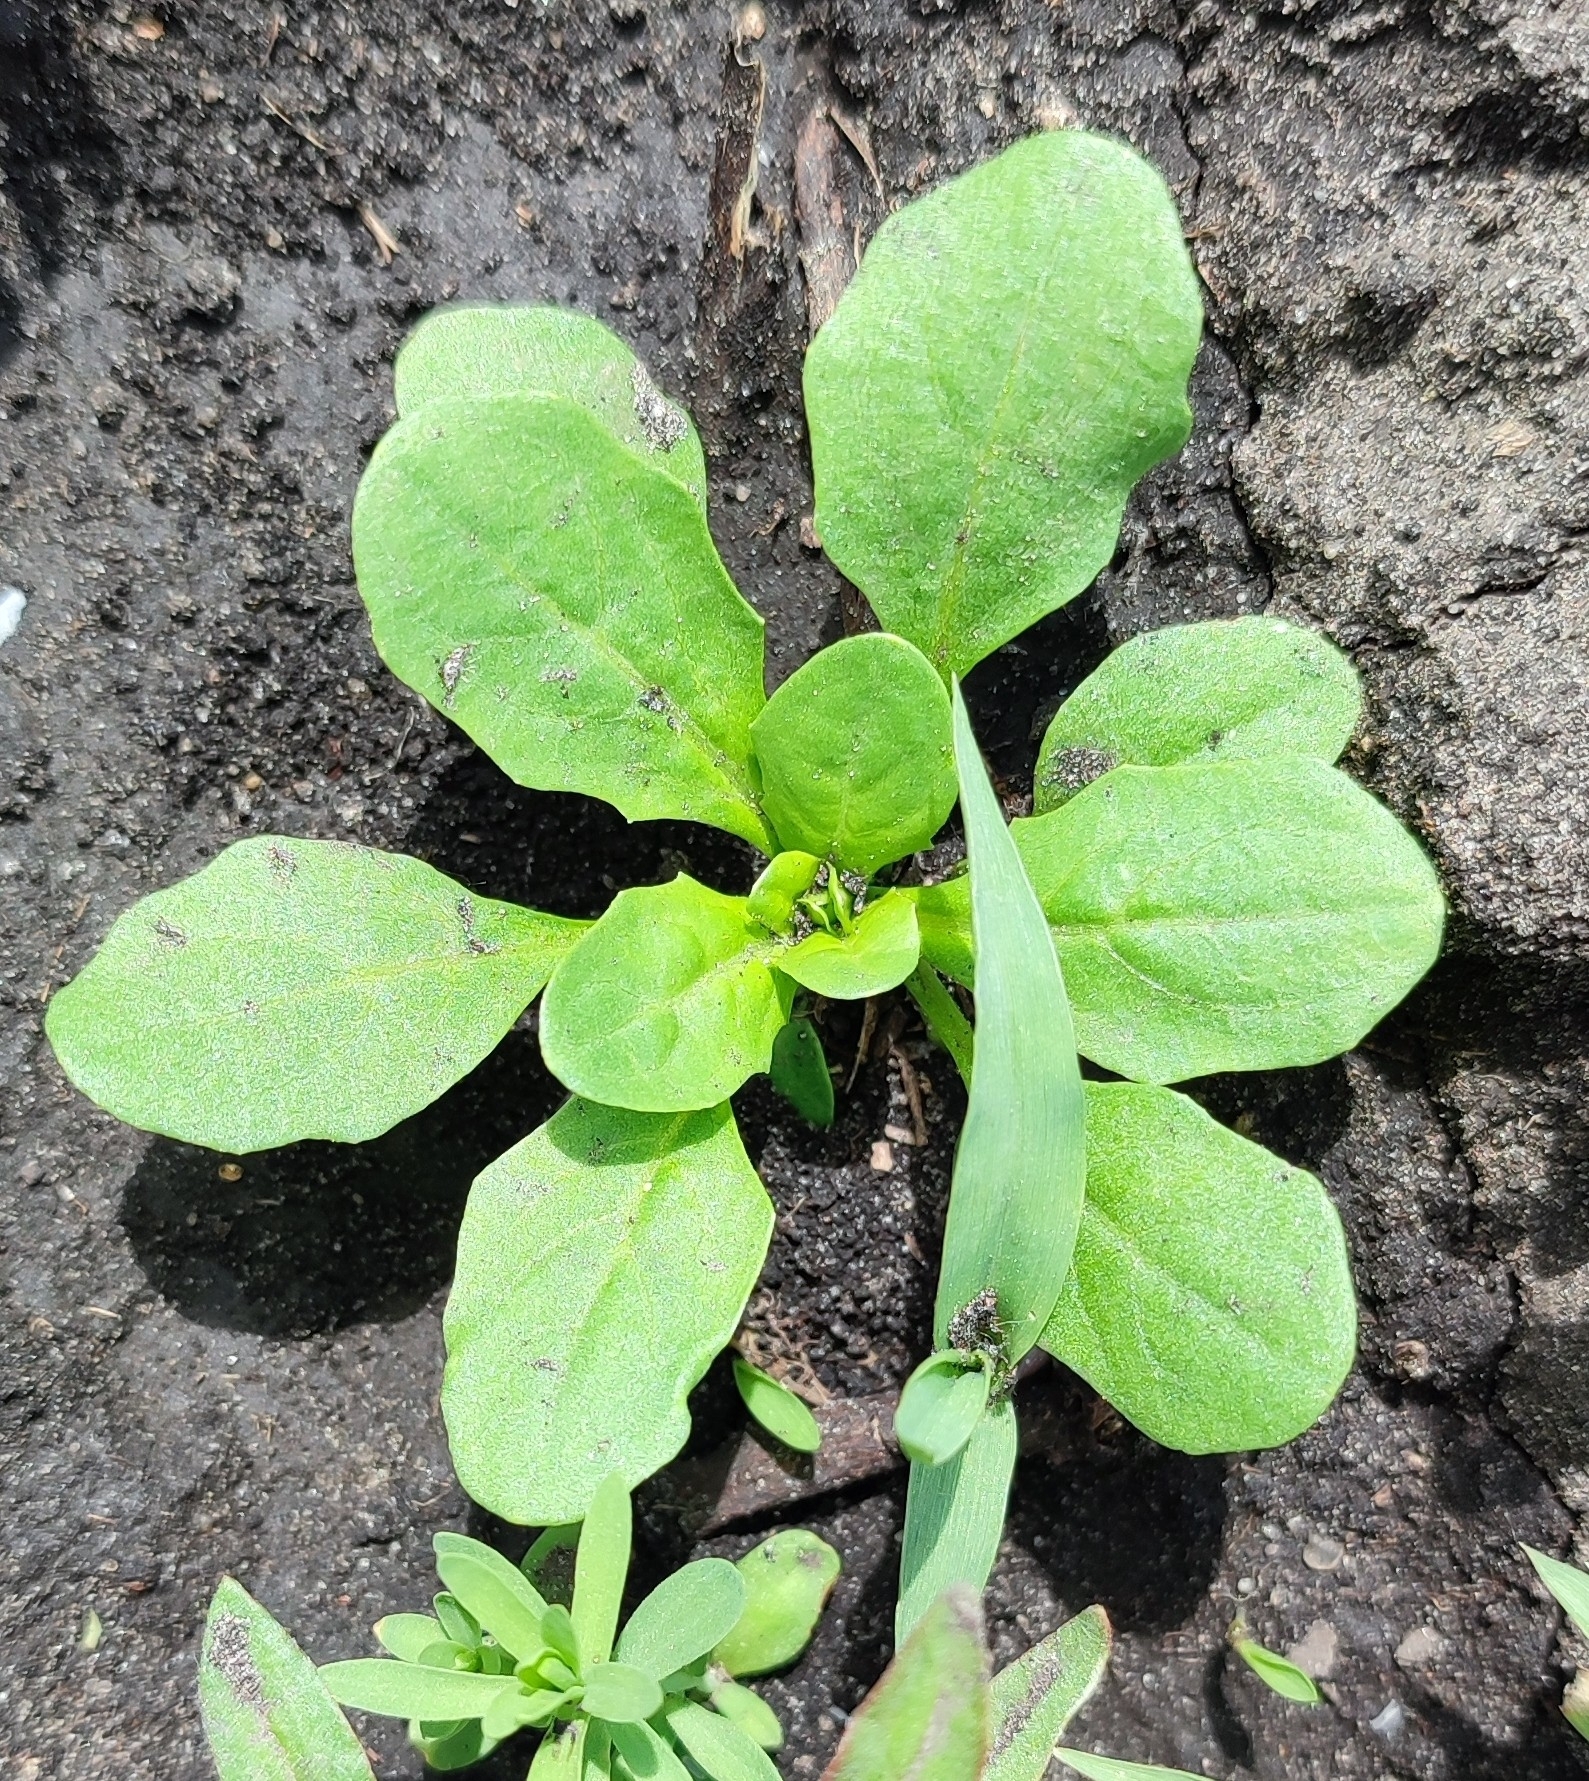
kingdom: Plantae
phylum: Tracheophyta
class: Magnoliopsida
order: Brassicales
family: Brassicaceae
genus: Thlaspi
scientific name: Thlaspi arvense
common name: Field pennycress
